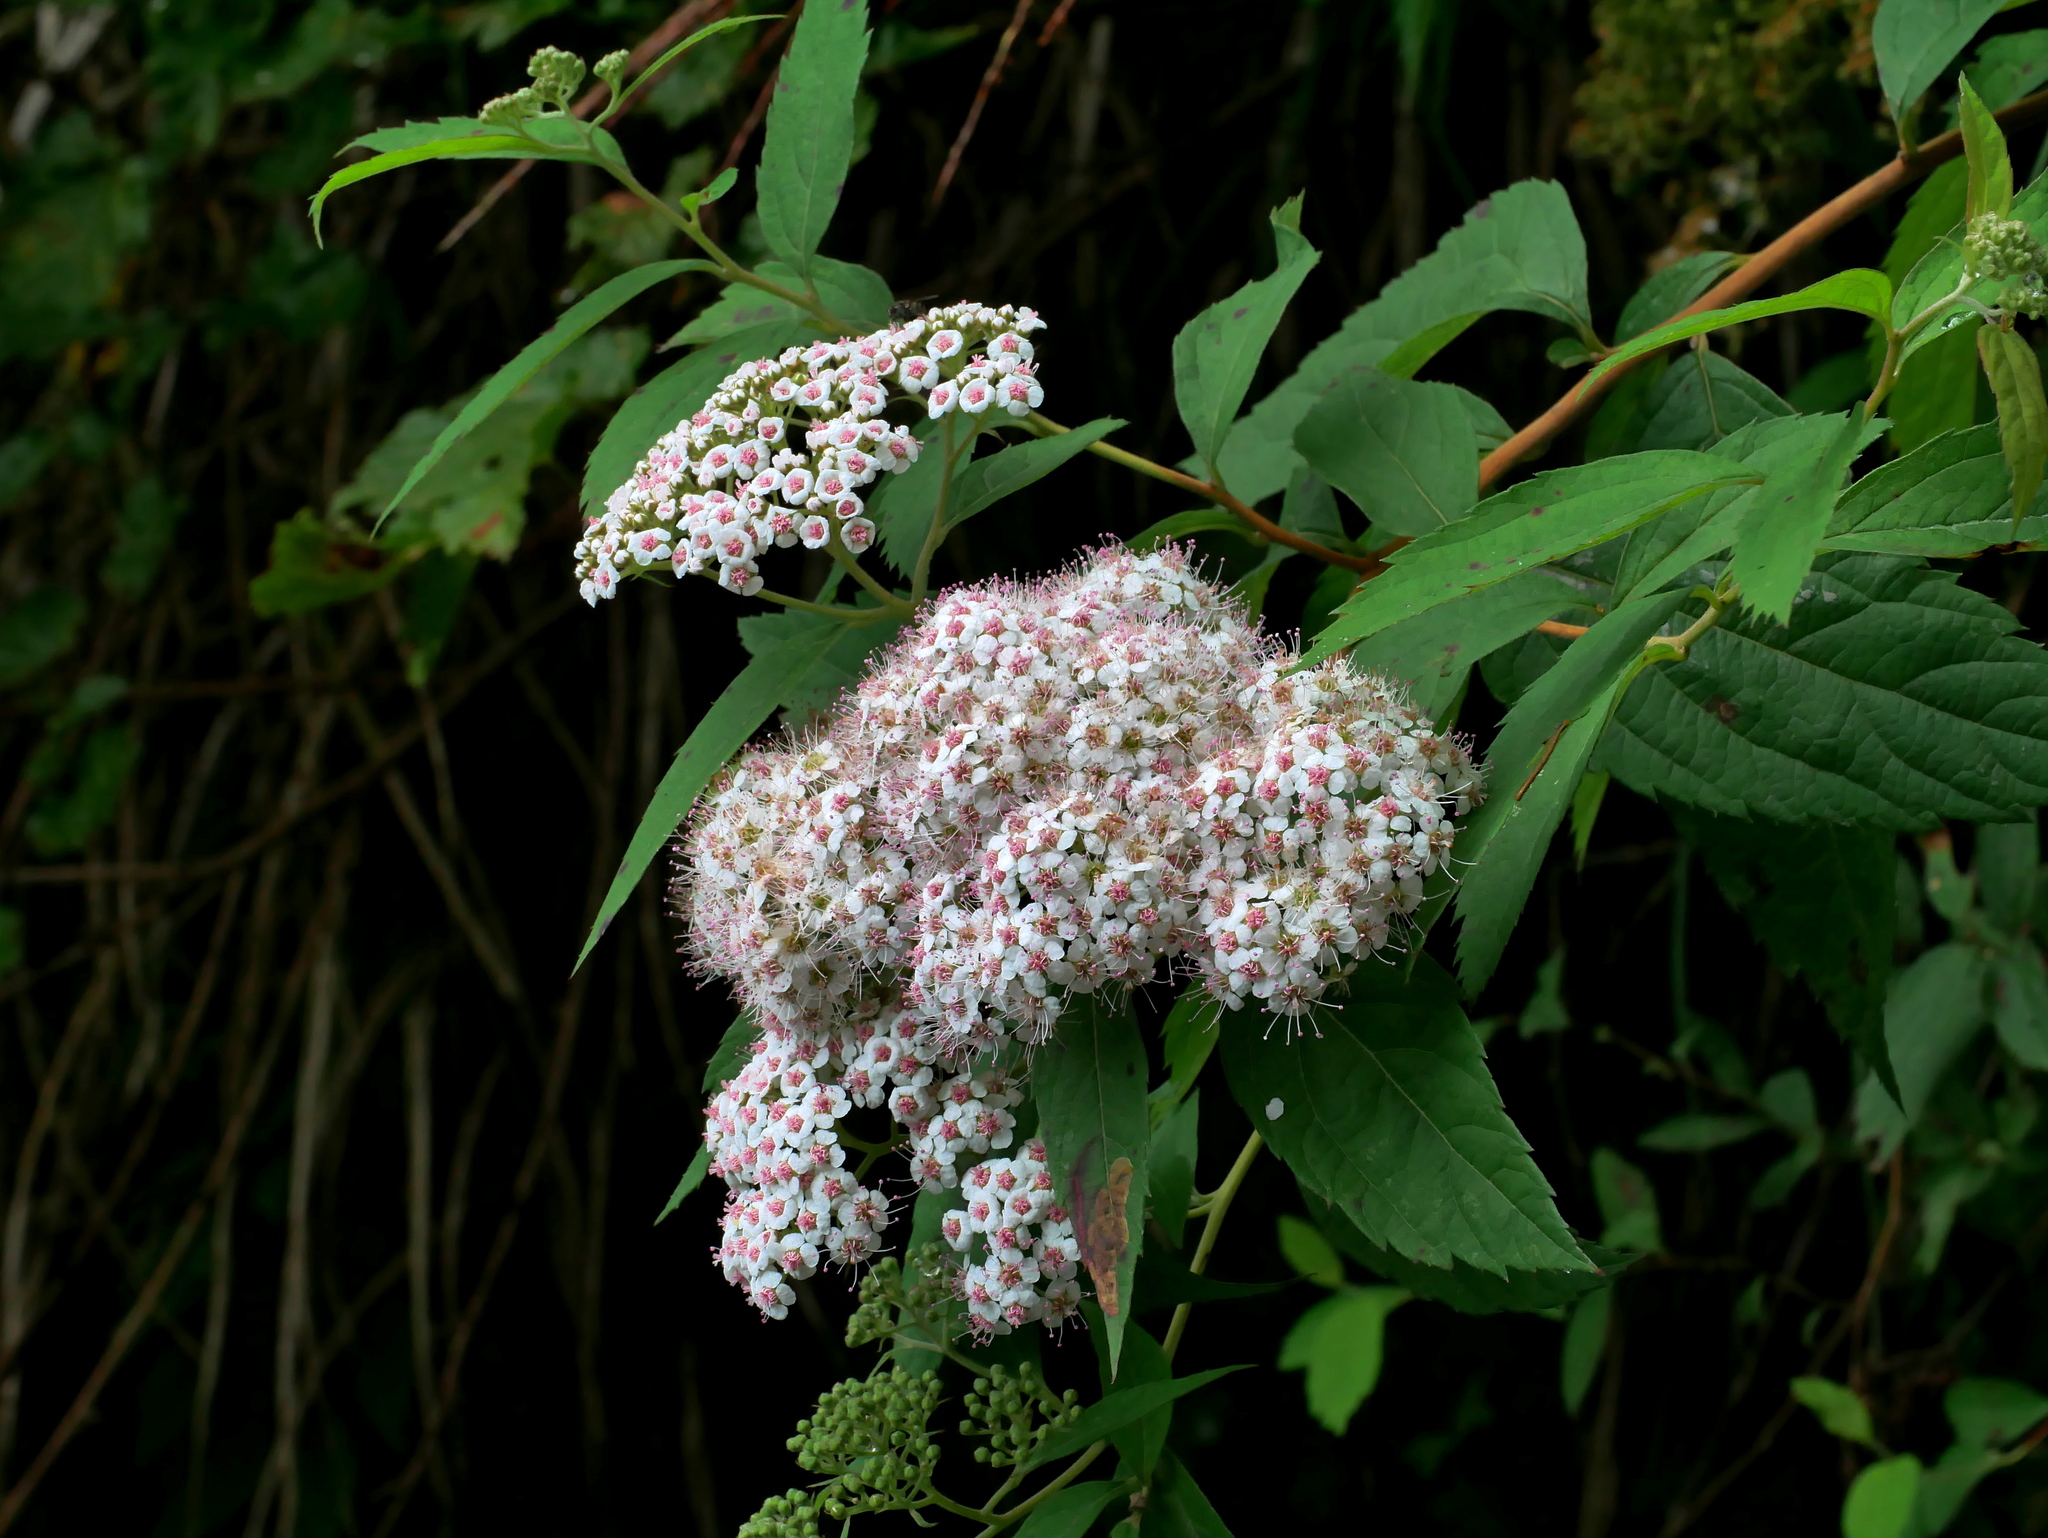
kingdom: Plantae
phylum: Tracheophyta
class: Magnoliopsida
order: Rosales
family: Rosaceae
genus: Spiraea
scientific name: Spiraea japonica
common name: Japanese spiraea
